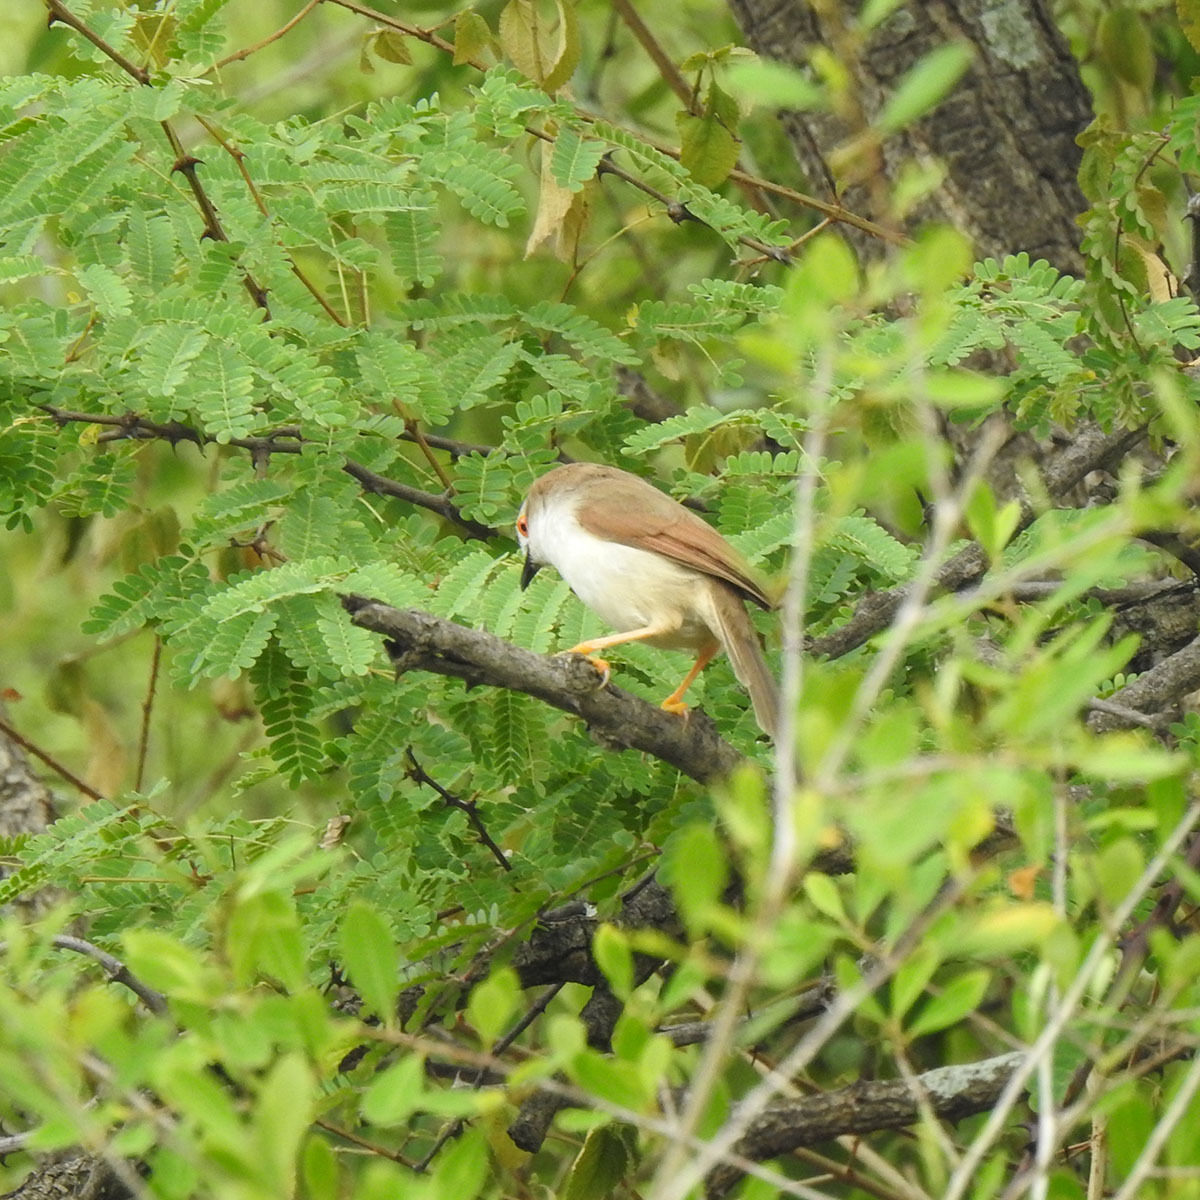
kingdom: Animalia
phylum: Chordata
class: Aves
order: Passeriformes
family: Sylviidae
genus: Chrysomma
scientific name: Chrysomma sinense
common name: Yellow-eyed babbler
